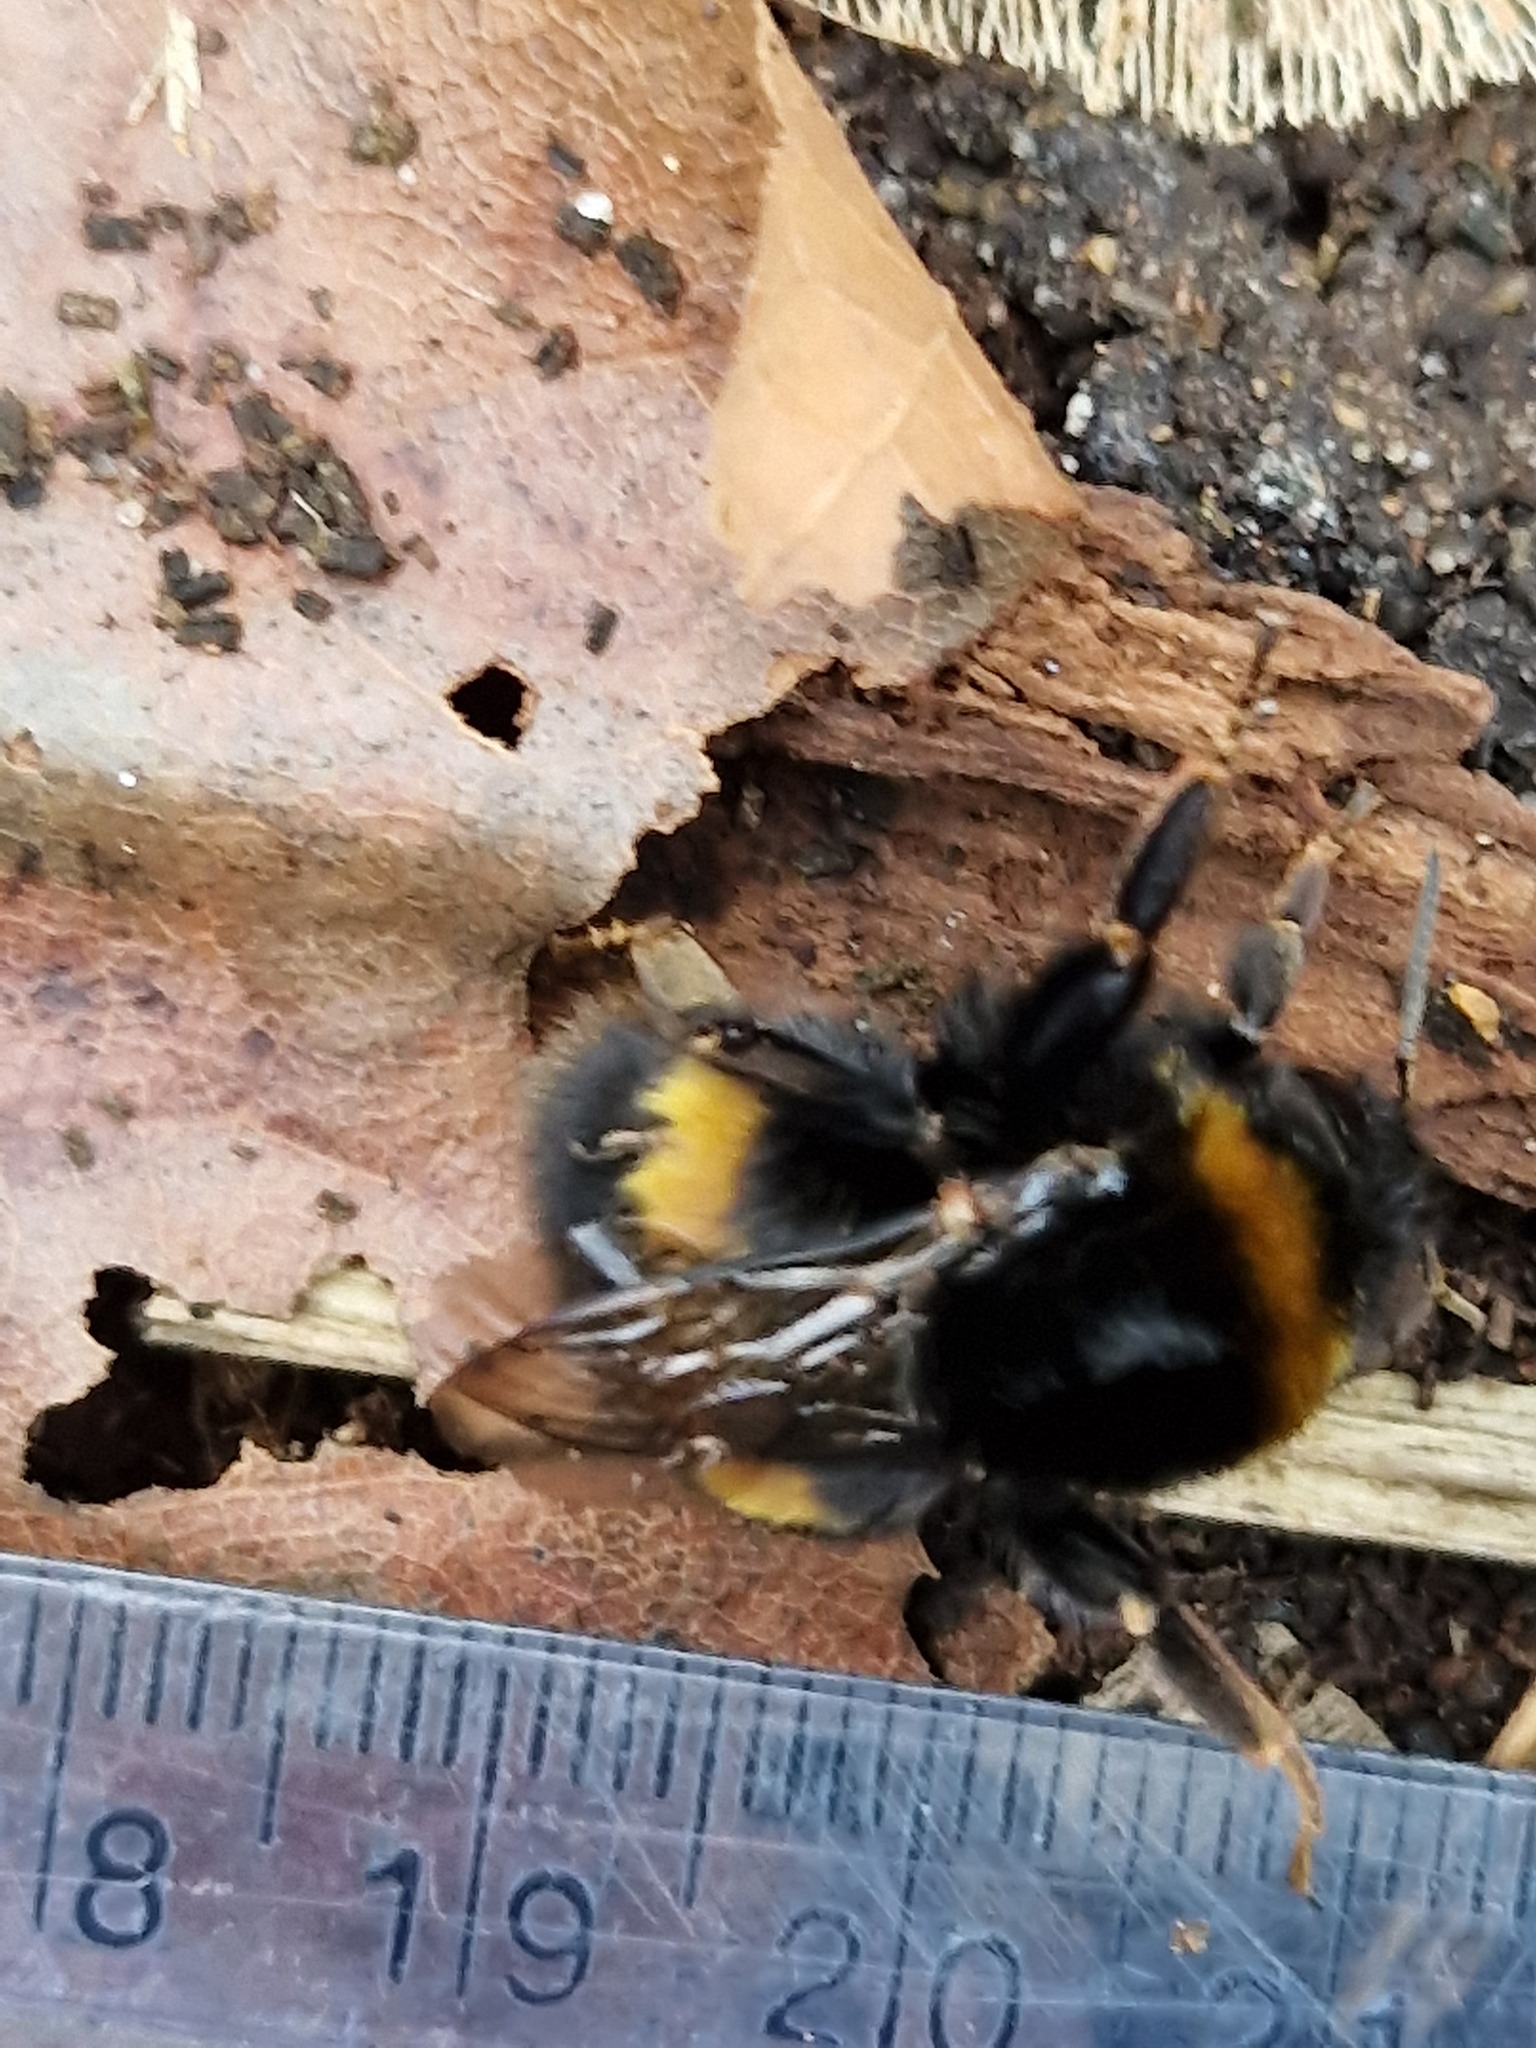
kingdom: Animalia
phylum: Arthropoda
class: Insecta
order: Hymenoptera
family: Apidae
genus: Bombus
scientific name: Bombus terrestris
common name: Buff-tailed bumblebee
